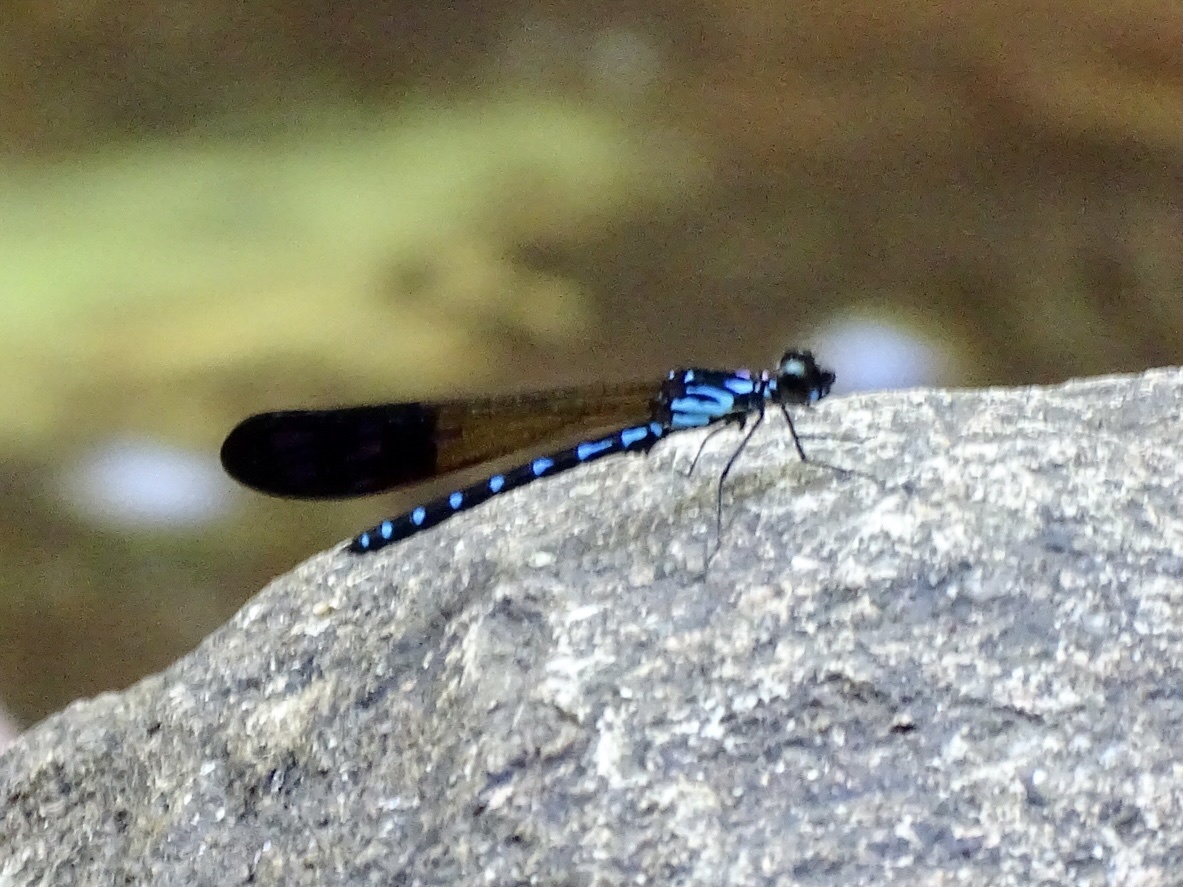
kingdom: Animalia
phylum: Arthropoda
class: Insecta
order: Odonata
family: Chlorocyphidae
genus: Heliocypha
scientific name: Heliocypha perforata
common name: Common blue jewel
